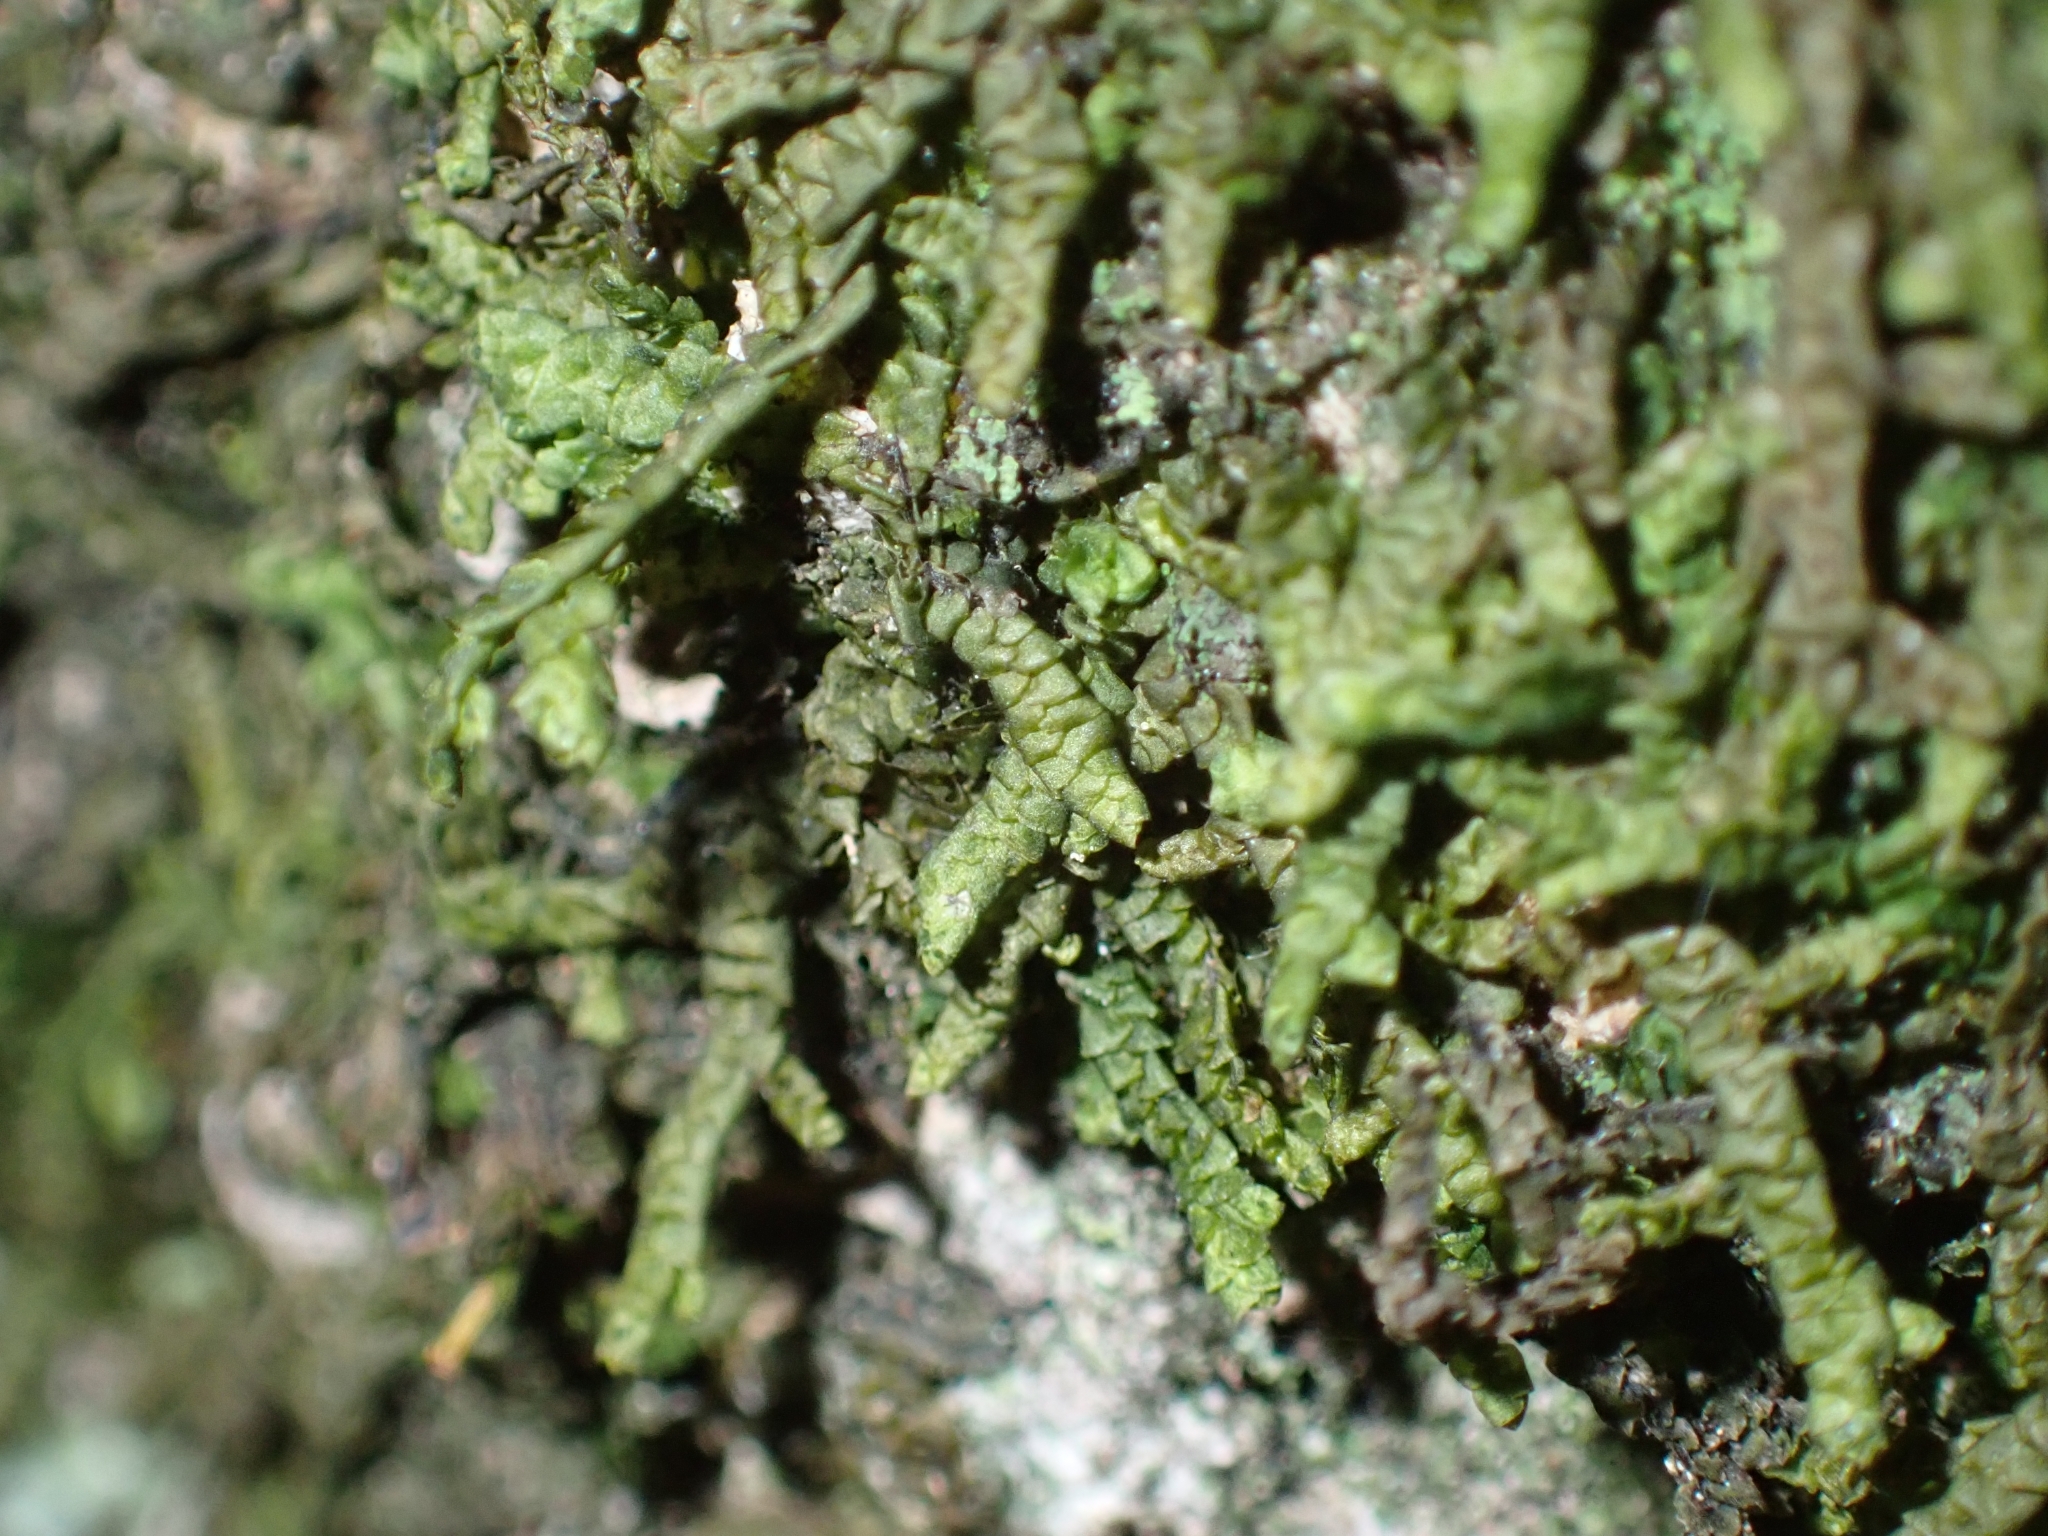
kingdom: Plantae
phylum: Marchantiophyta
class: Jungermanniopsida
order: Porellales
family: Porellaceae
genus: Porella
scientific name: Porella platyphylla
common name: Wall scalewort
